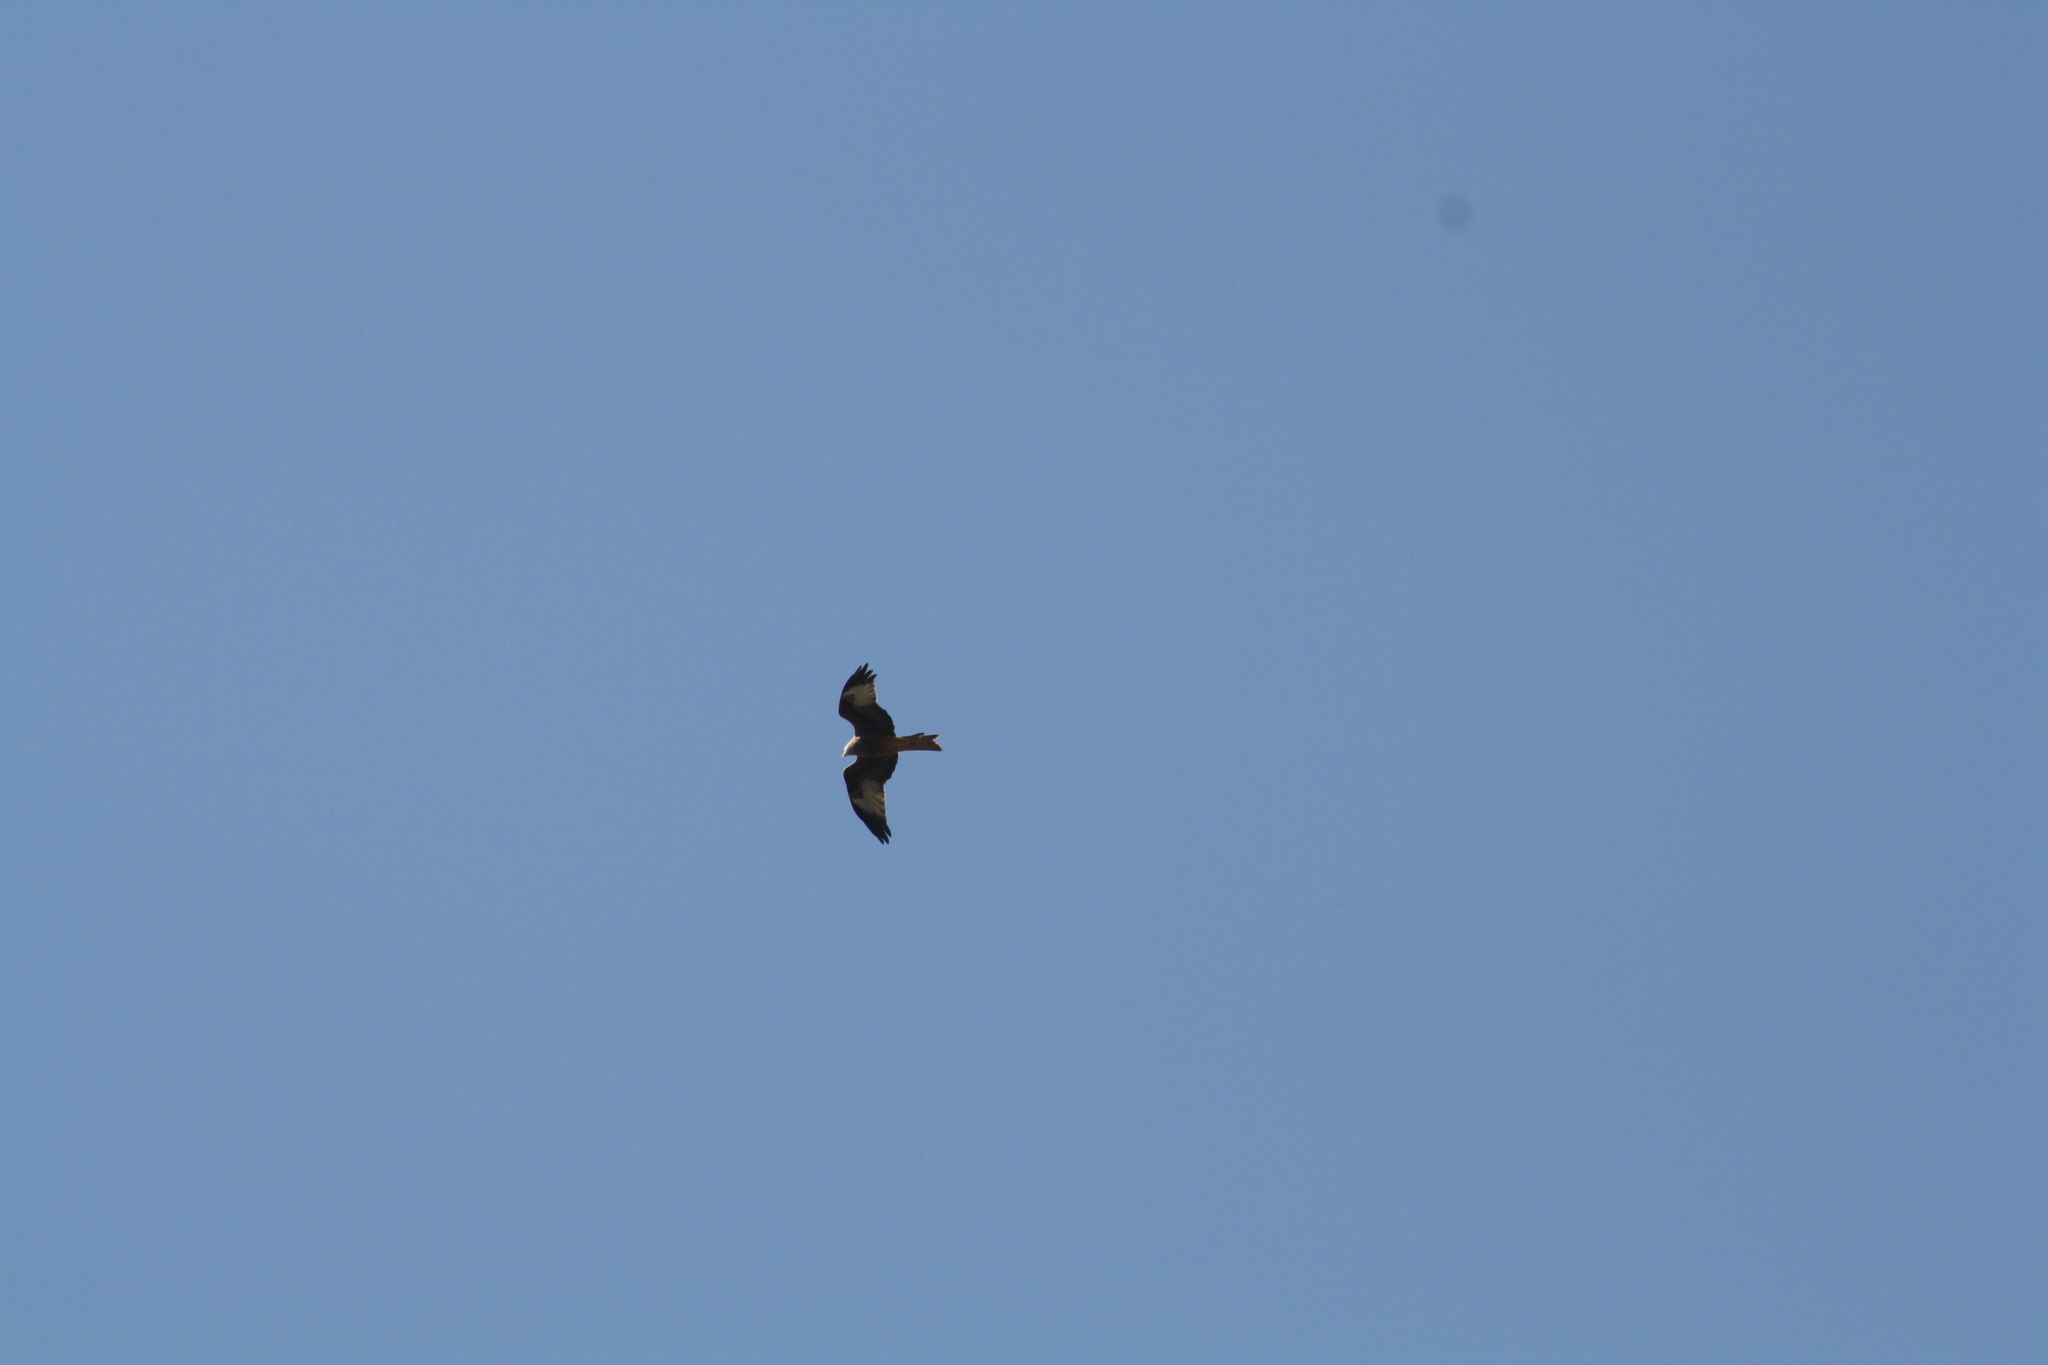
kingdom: Animalia
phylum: Chordata
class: Aves
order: Accipitriformes
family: Accipitridae
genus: Milvus
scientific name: Milvus milvus
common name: Red kite
